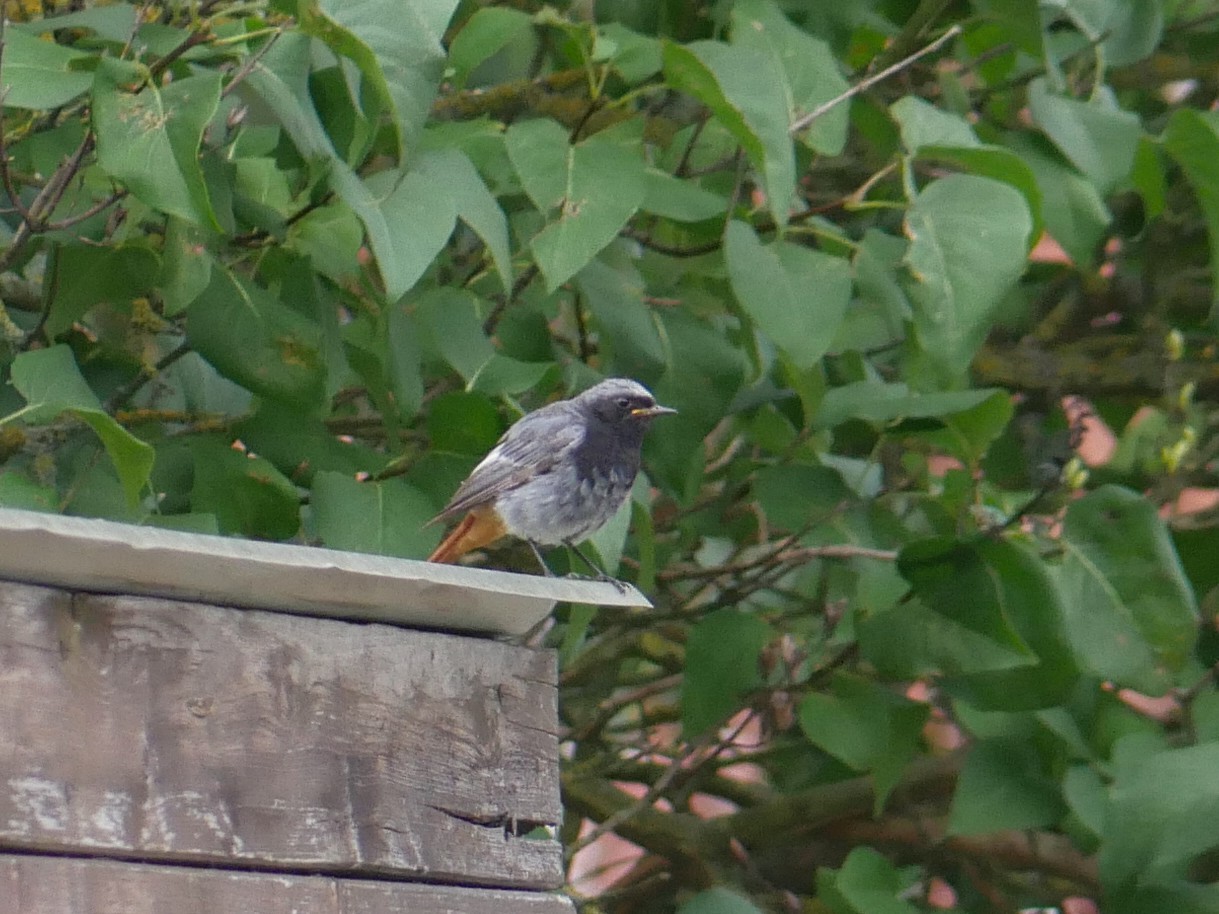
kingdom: Animalia
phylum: Chordata
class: Aves
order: Passeriformes
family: Muscicapidae
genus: Phoenicurus
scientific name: Phoenicurus ochruros
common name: Black redstart
